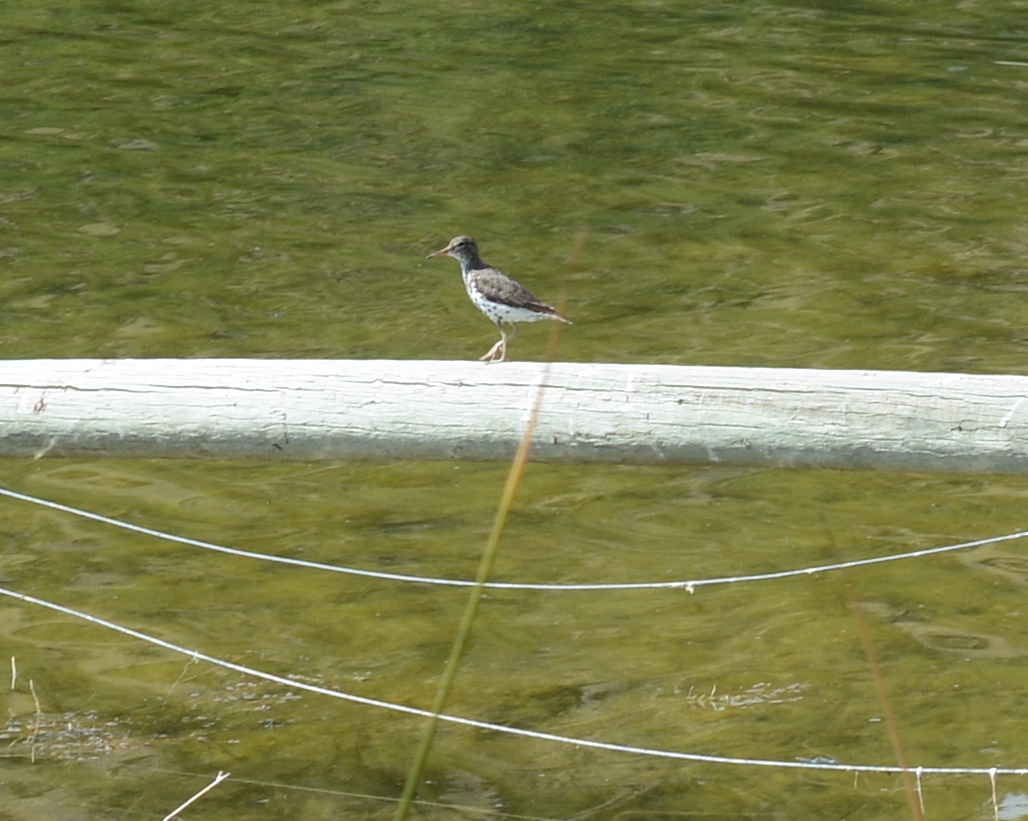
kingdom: Animalia
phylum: Chordata
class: Aves
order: Charadriiformes
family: Scolopacidae
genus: Actitis
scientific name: Actitis macularius
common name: Spotted sandpiper
